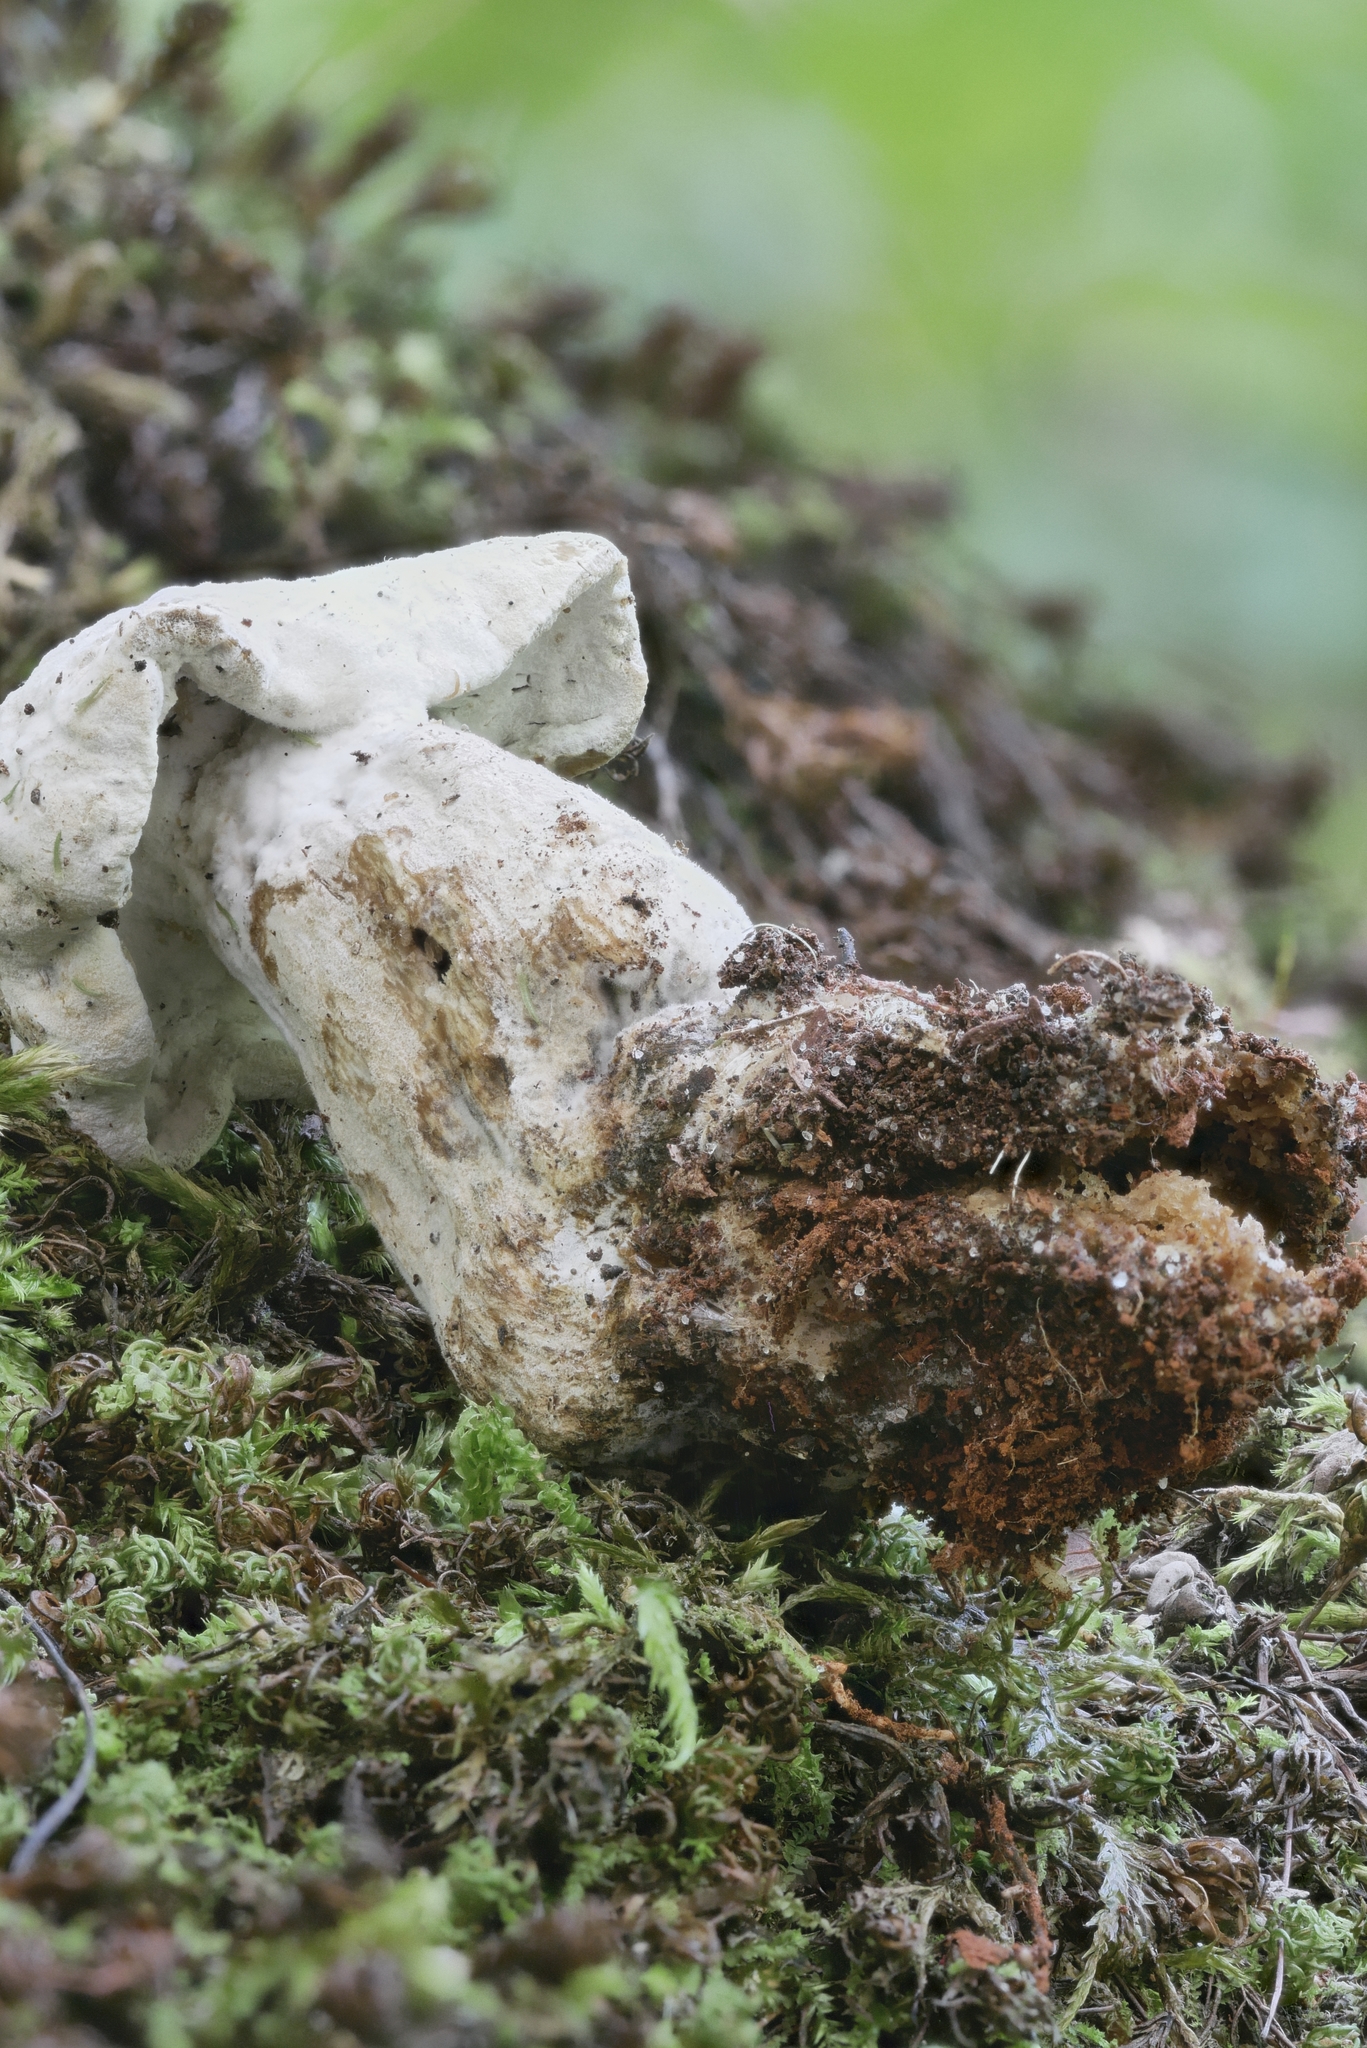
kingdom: Fungi
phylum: Ascomycota
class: Sordariomycetes
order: Hypocreales
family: Hypocreaceae
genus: Hypomyces
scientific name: Hypomyces chlorinus
